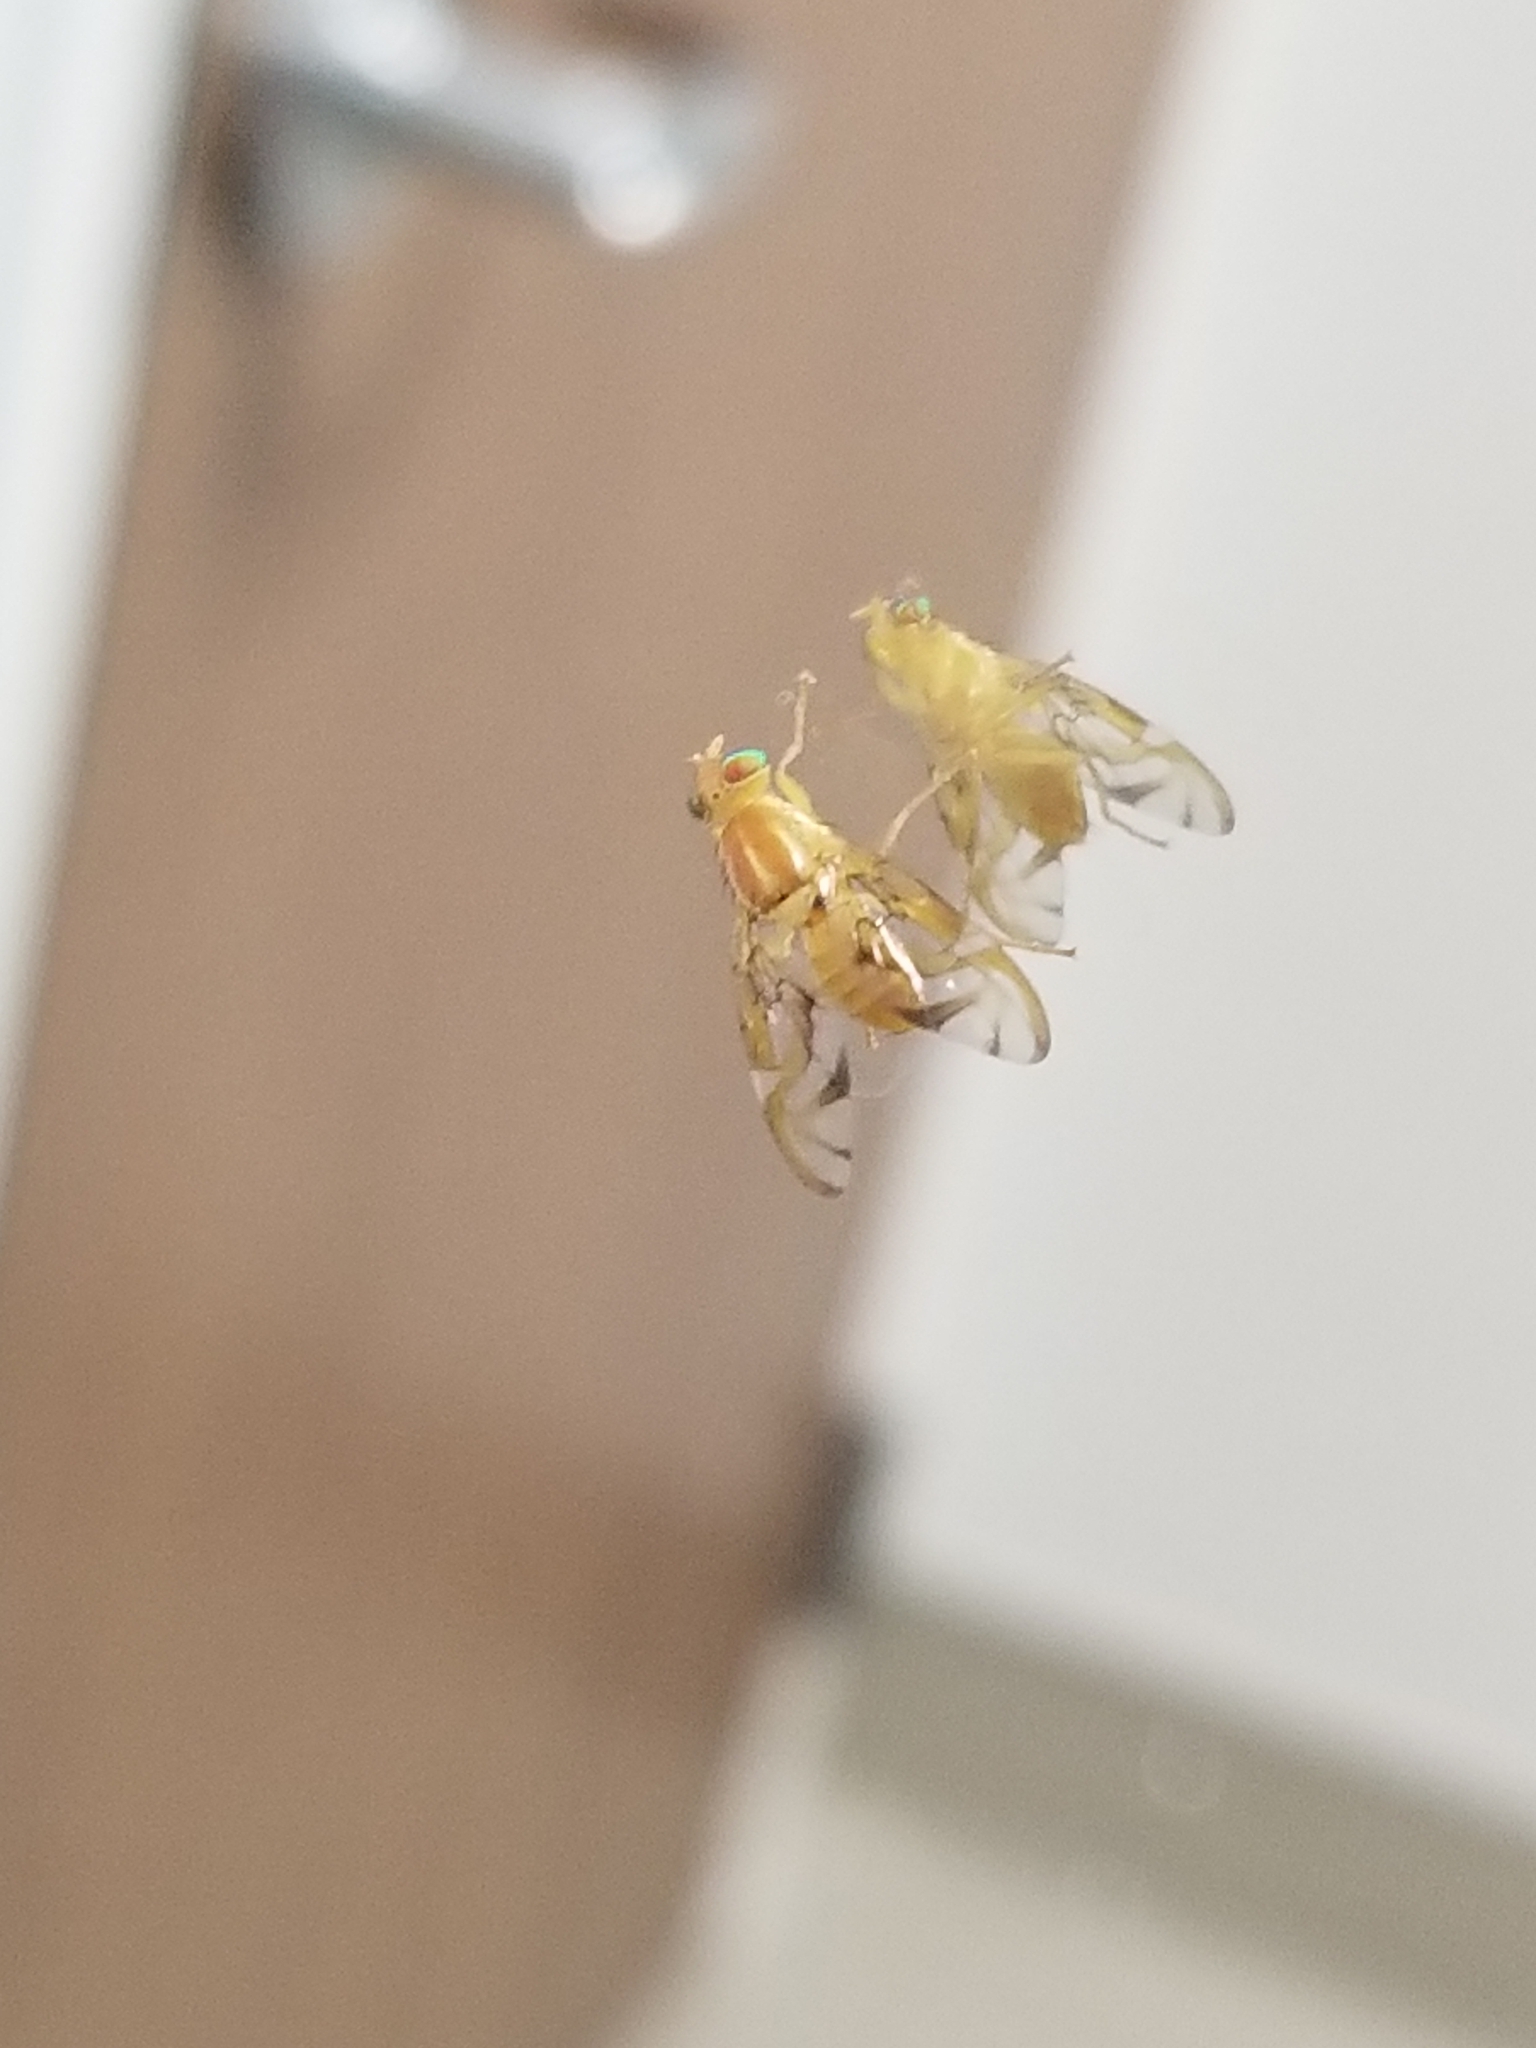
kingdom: Animalia
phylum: Arthropoda
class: Insecta
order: Diptera
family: Tephritidae
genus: Anastrepha
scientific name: Anastrepha ludens
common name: Mexican fruit fly
